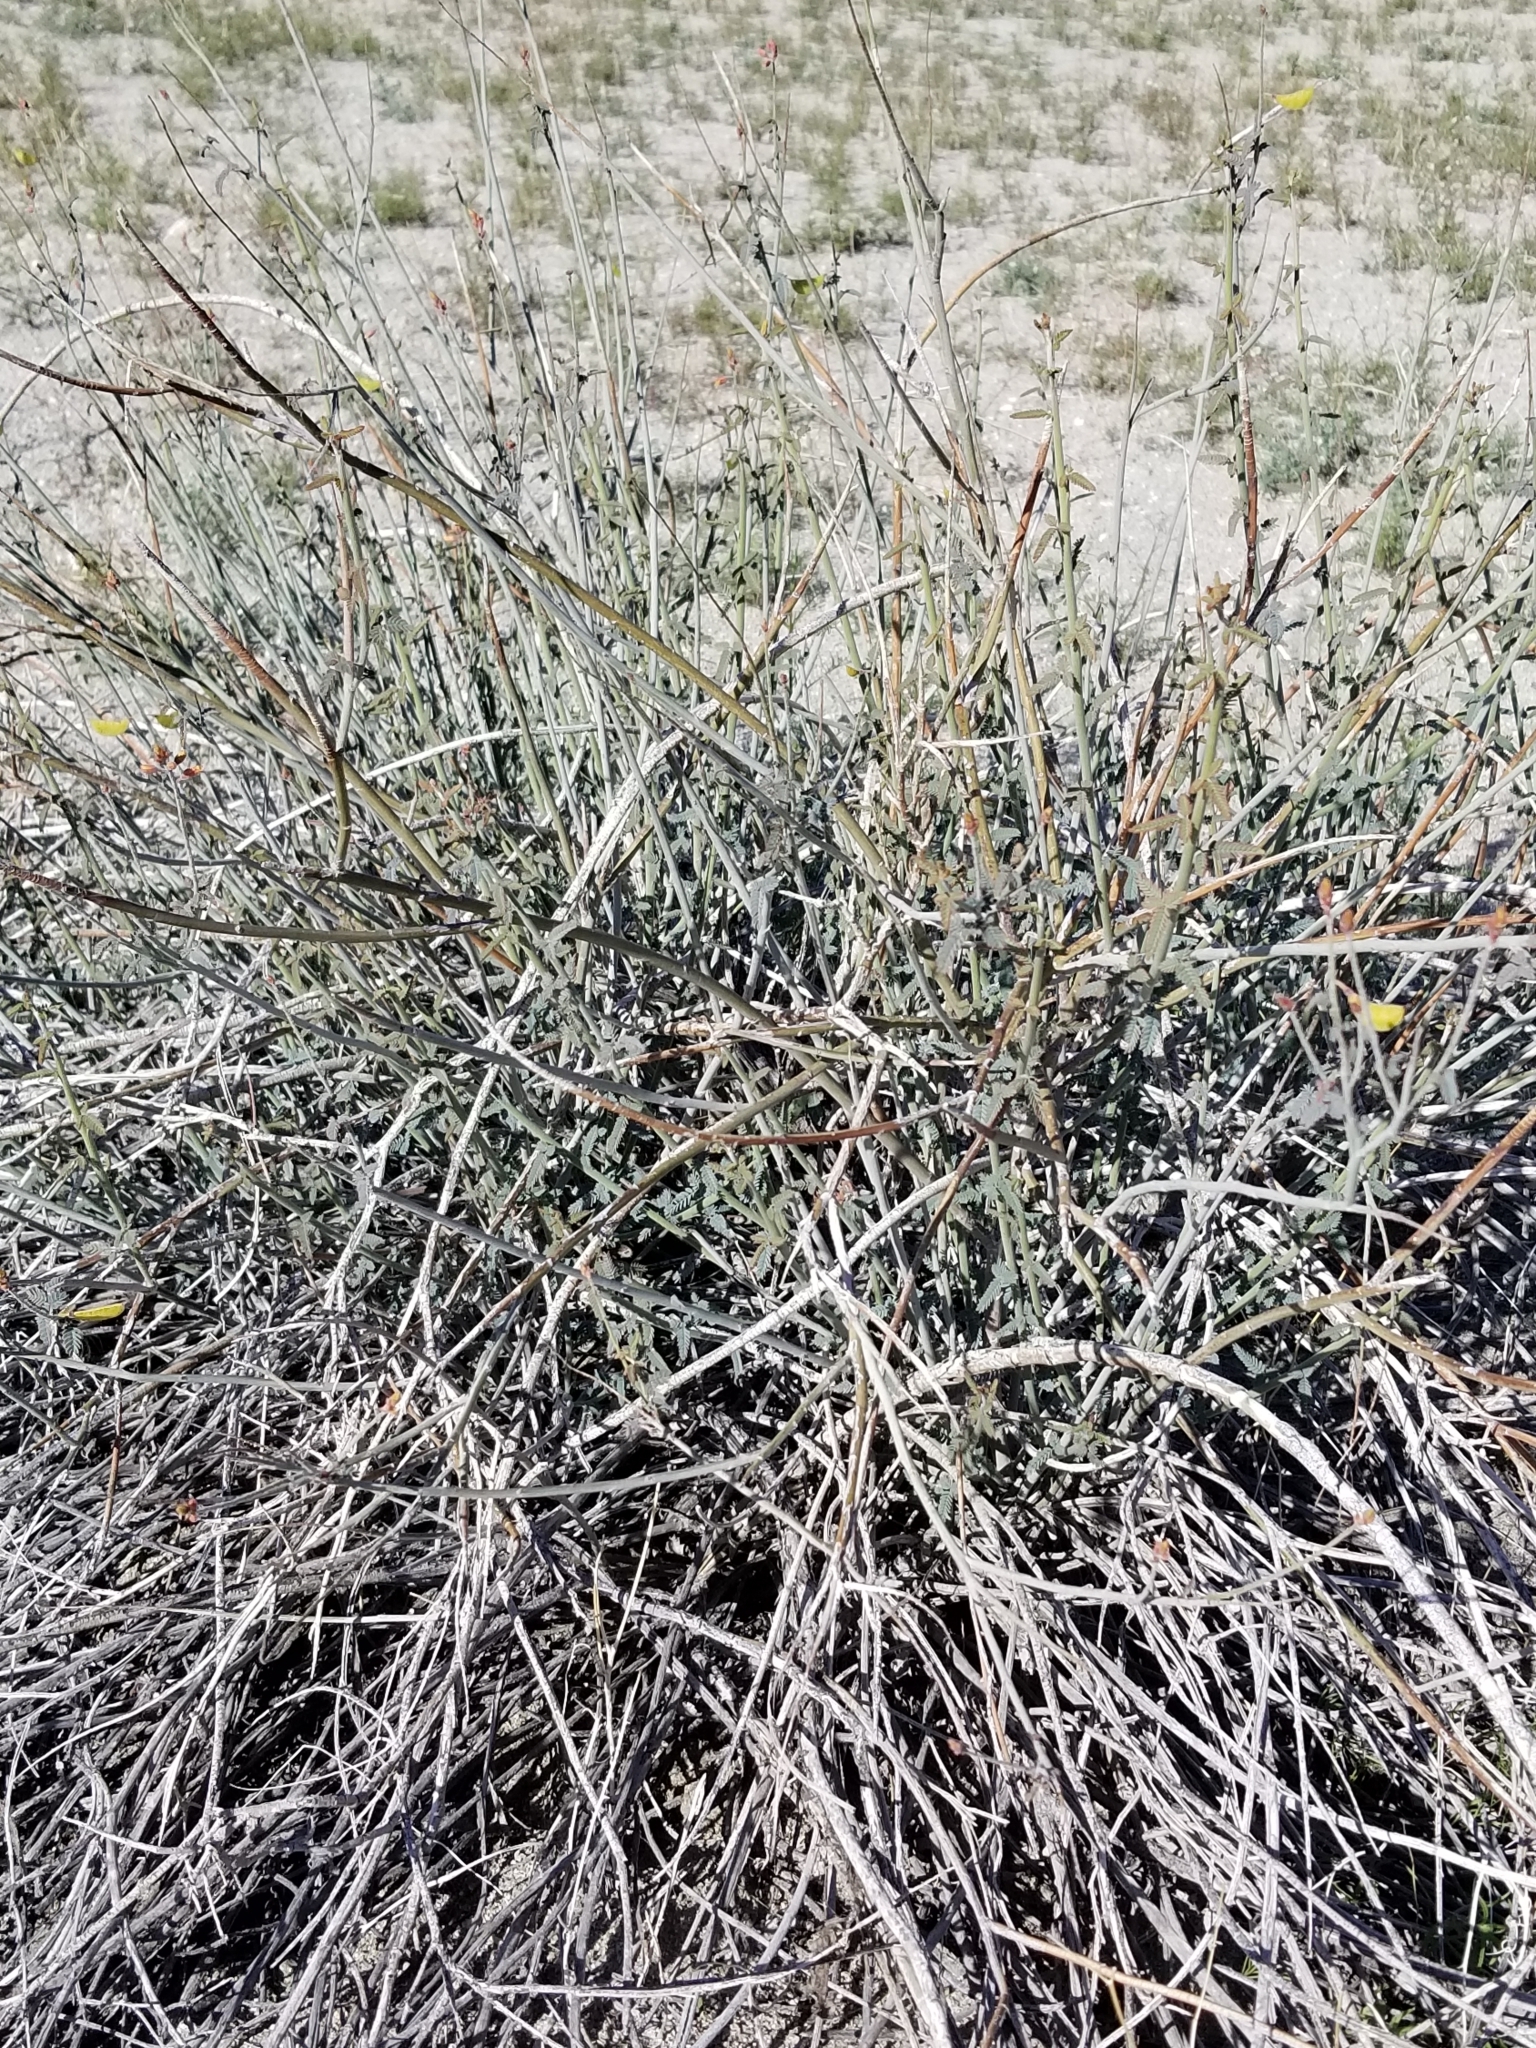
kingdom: Plantae
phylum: Tracheophyta
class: Magnoliopsida
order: Fabales
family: Fabaceae
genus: Hoffmannseggia
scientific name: Hoffmannseggia microphylla
